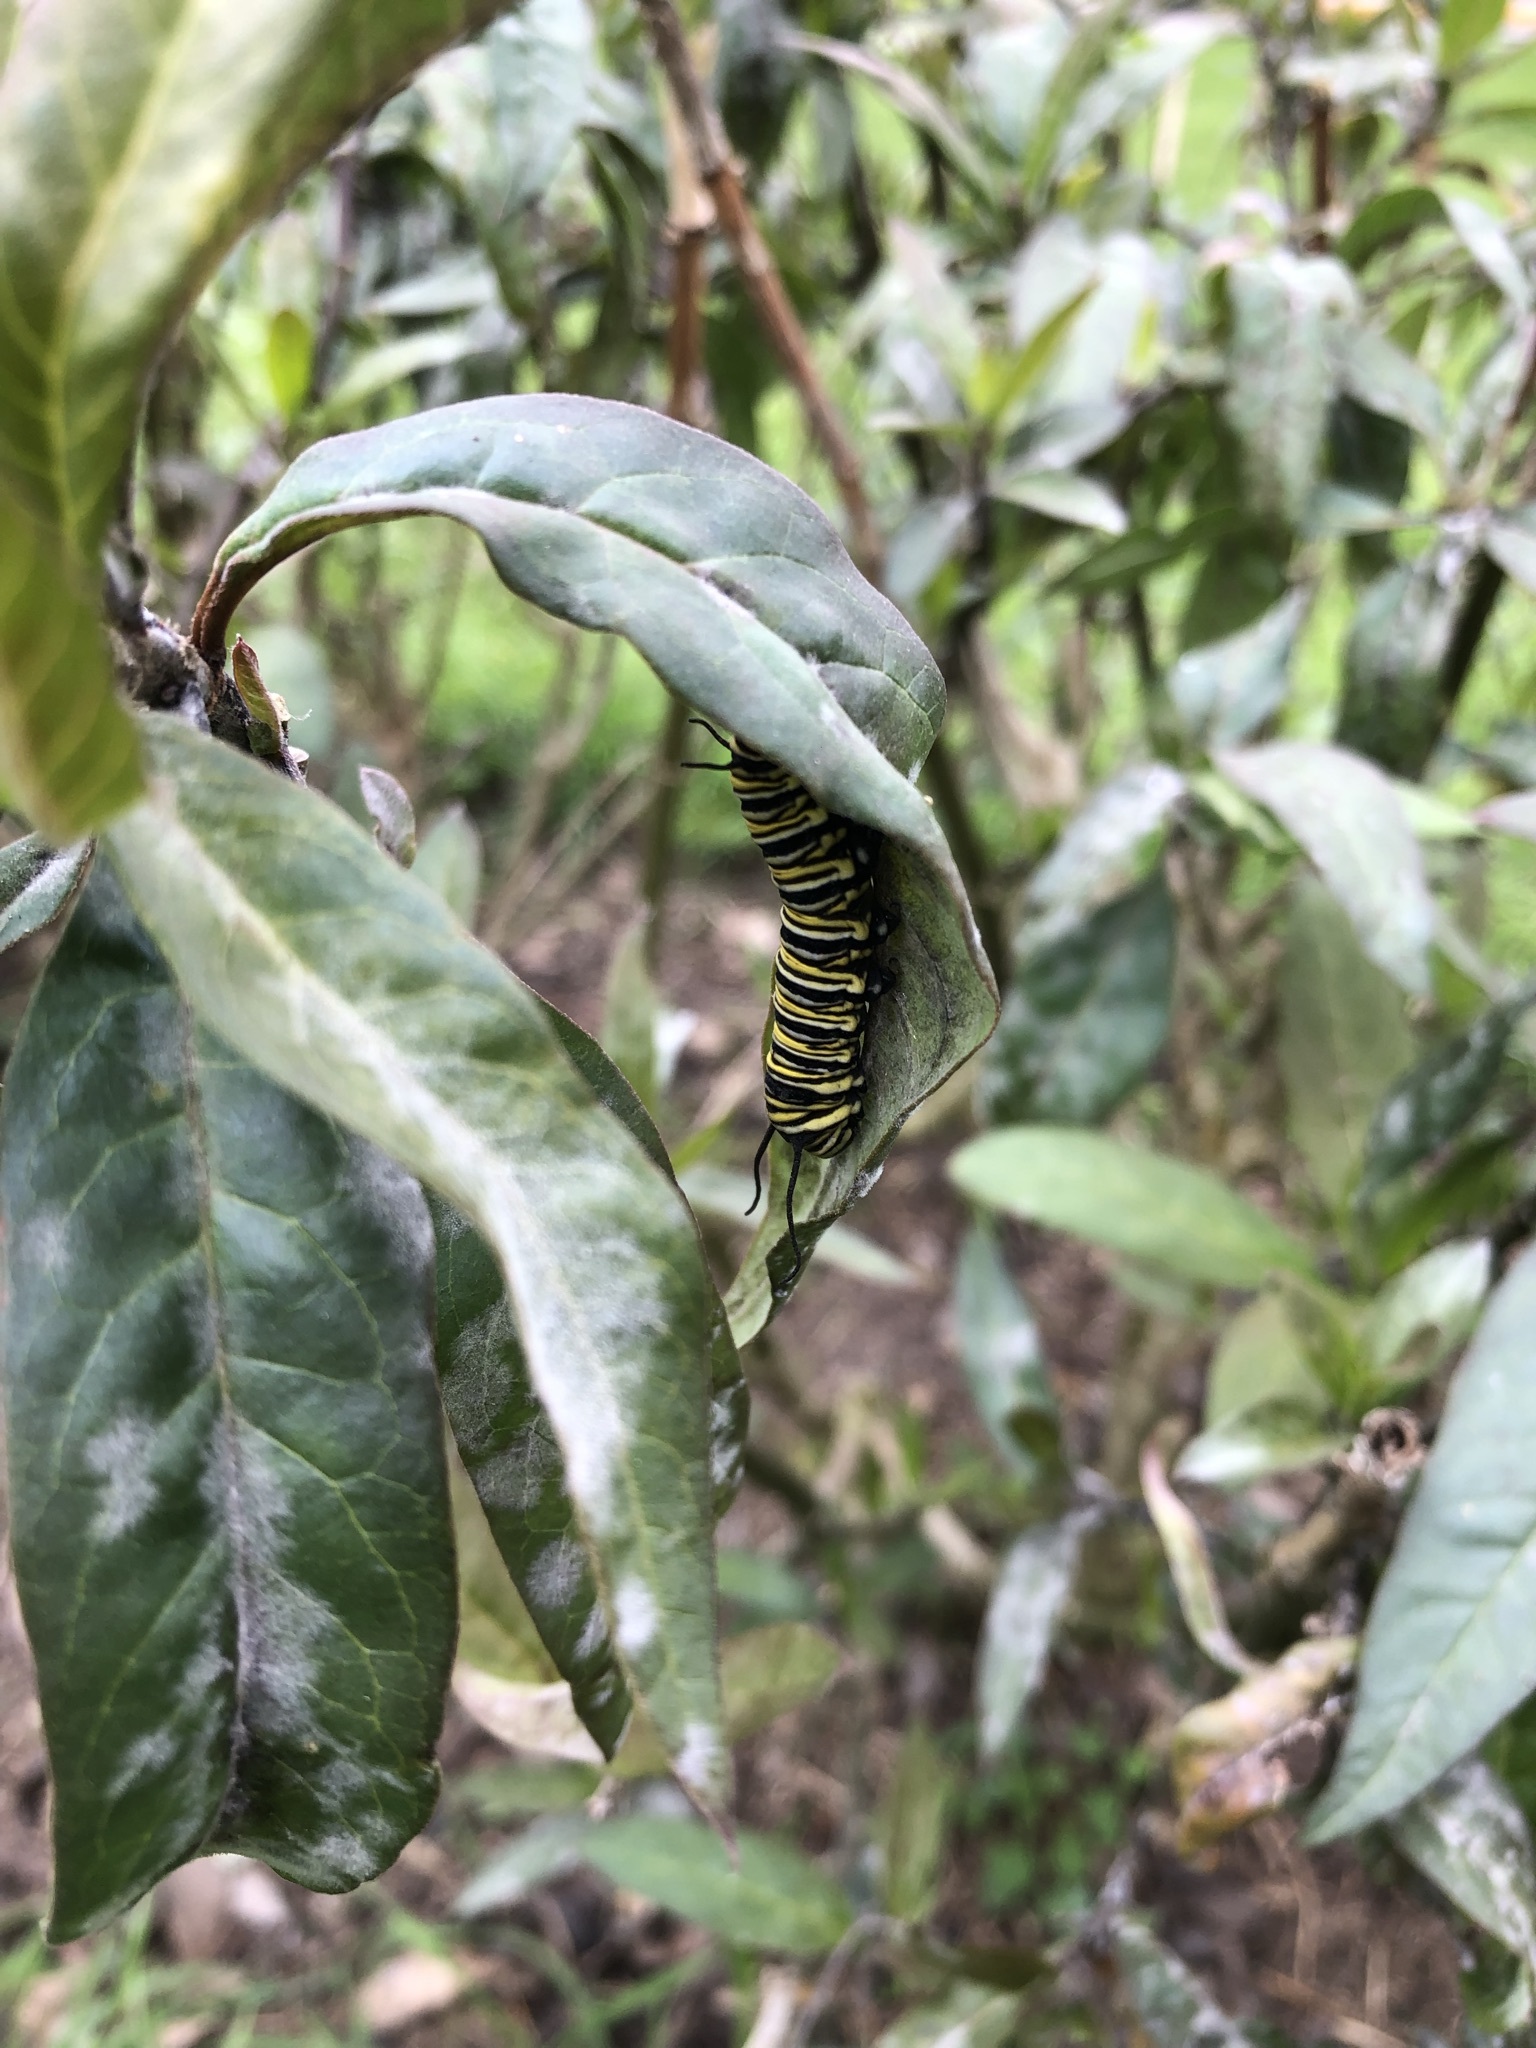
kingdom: Animalia
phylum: Arthropoda
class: Insecta
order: Lepidoptera
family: Nymphalidae
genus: Danaus
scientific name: Danaus plexippus
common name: Monarch
